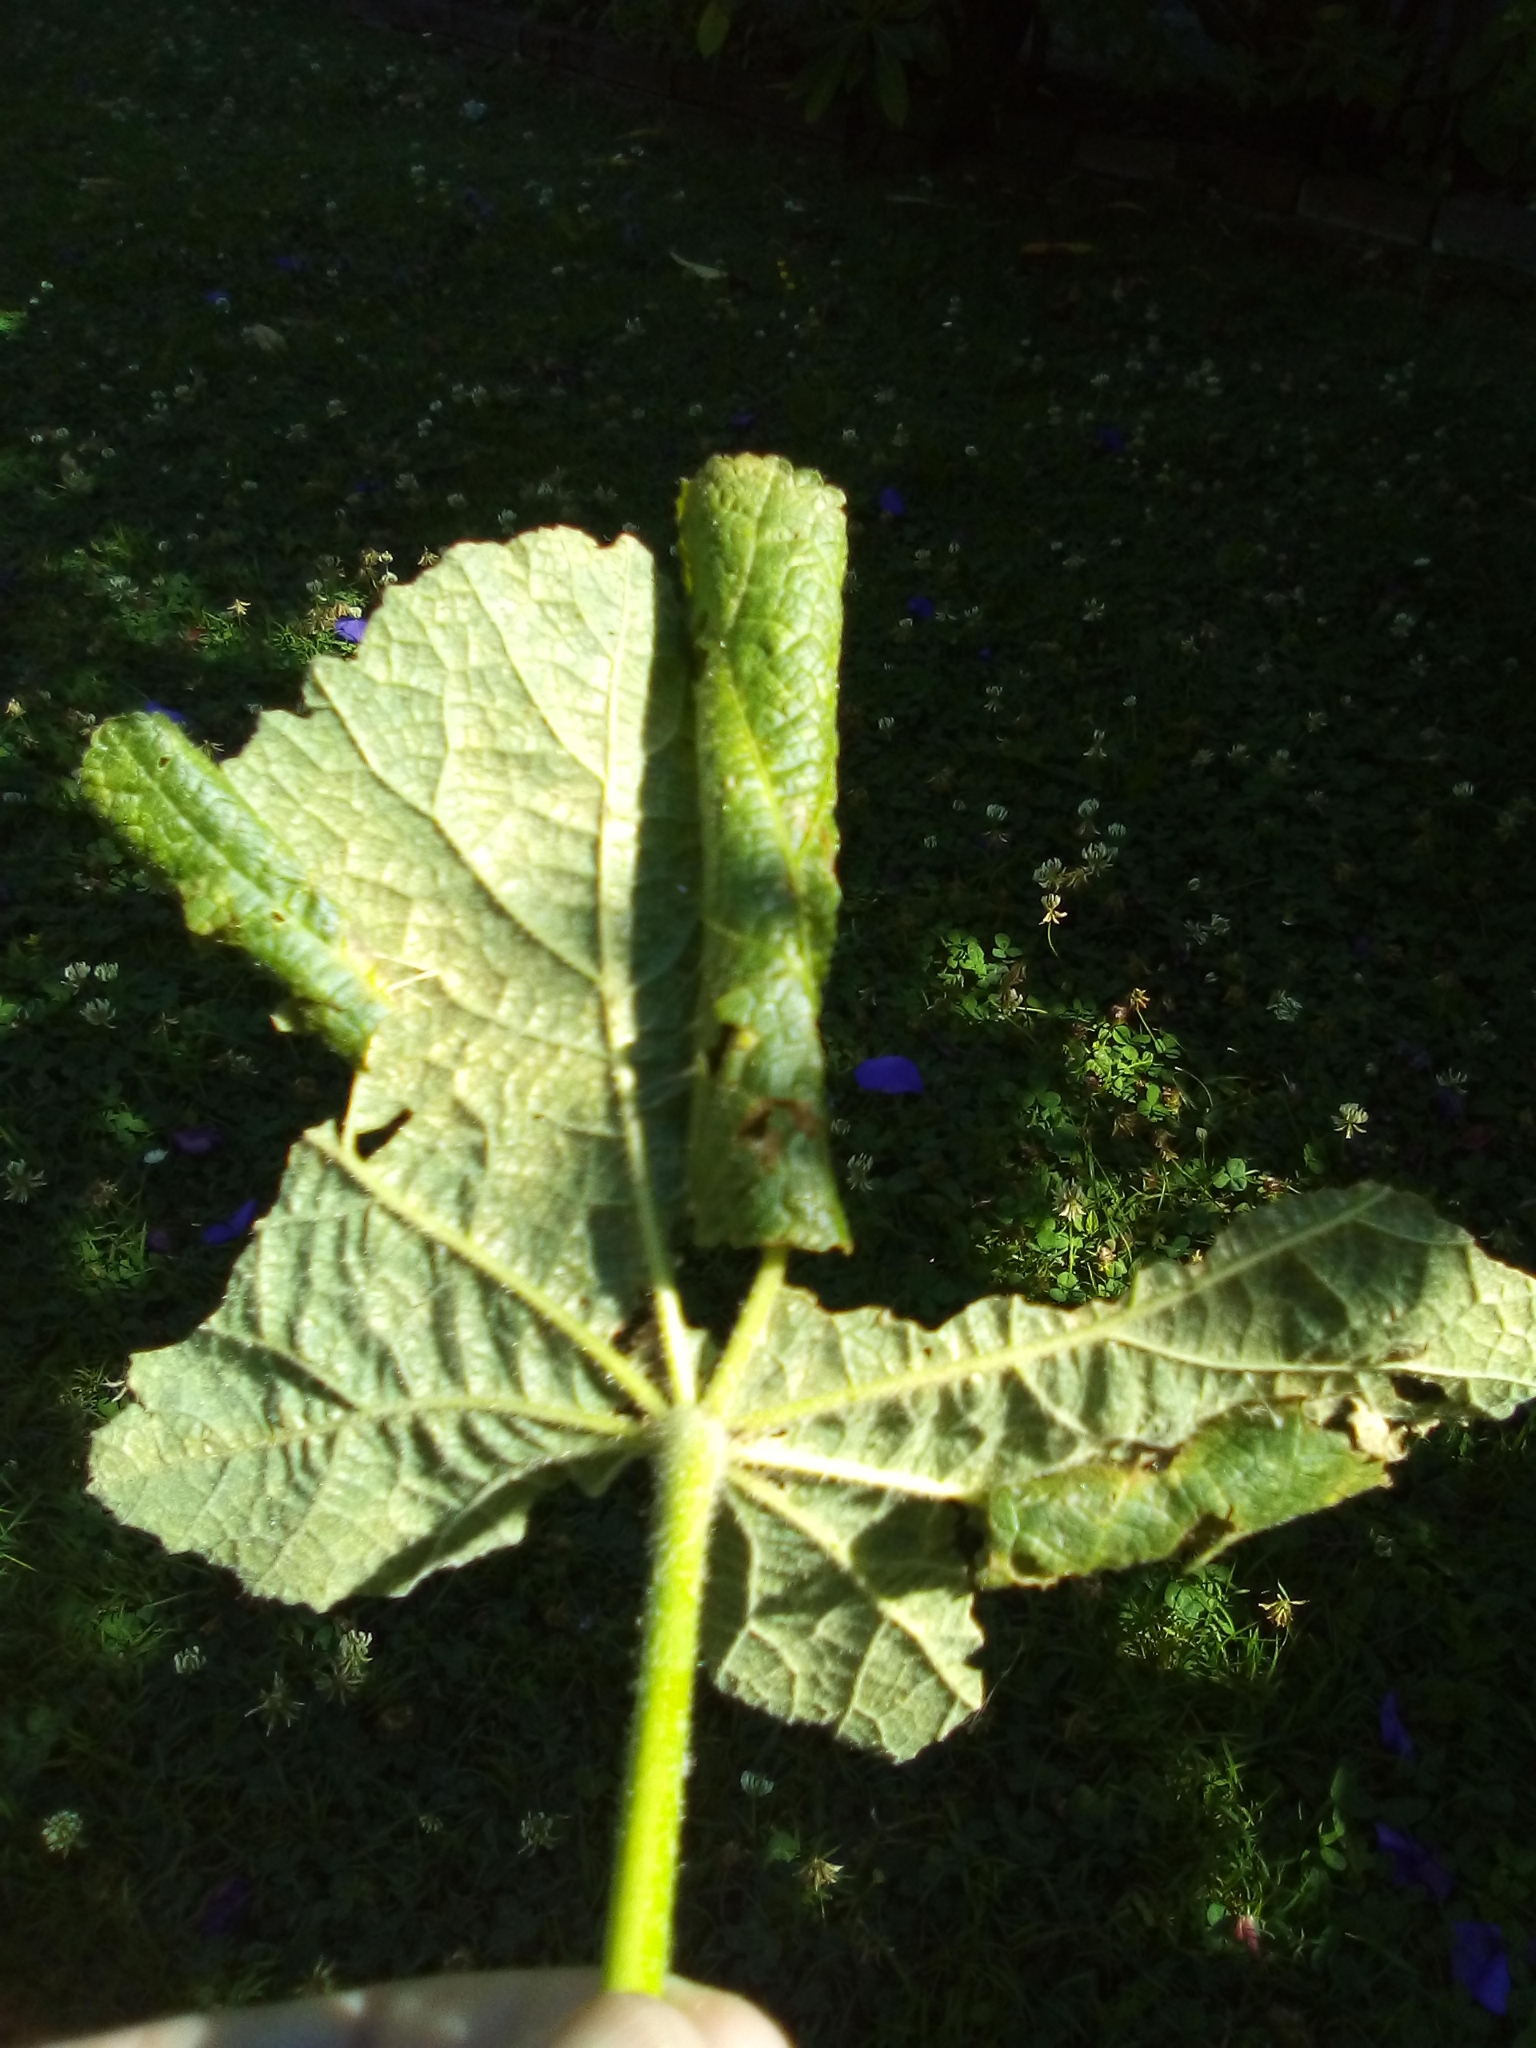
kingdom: Animalia
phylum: Arthropoda
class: Insecta
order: Lepidoptera
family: Crambidae
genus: Haritalodes
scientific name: Haritalodes derogata
